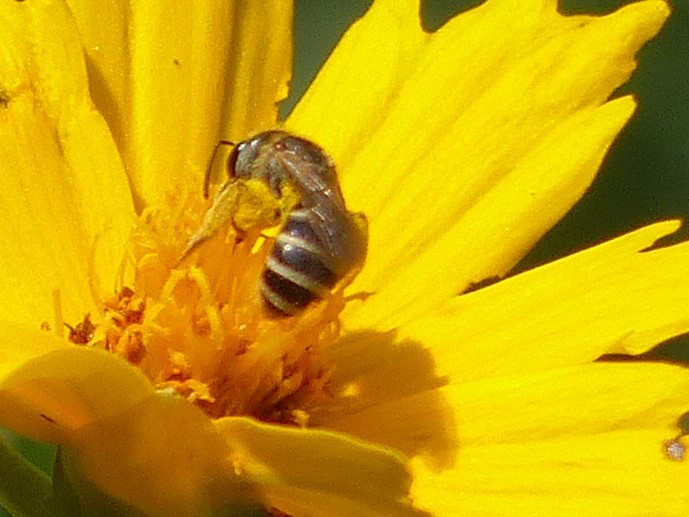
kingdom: Animalia
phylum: Arthropoda
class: Insecta
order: Hymenoptera
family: Halictidae
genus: Halictus
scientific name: Halictus ligatus
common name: Ligated furrow bee
